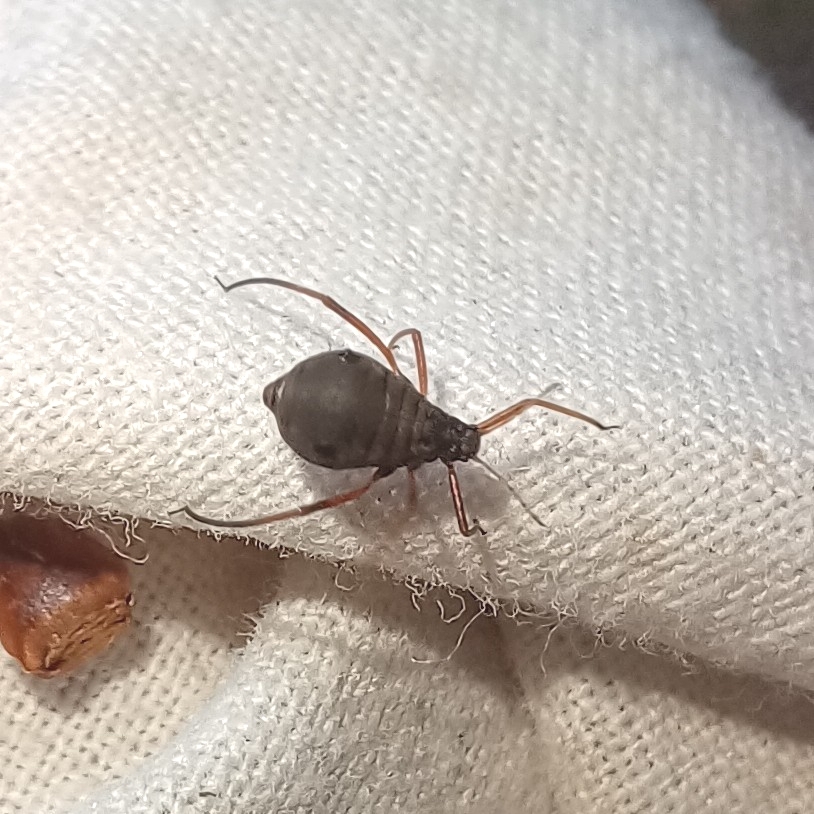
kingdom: Animalia
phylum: Arthropoda
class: Insecta
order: Hemiptera
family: Aphididae
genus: Lachnus
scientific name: Lachnus roboris
